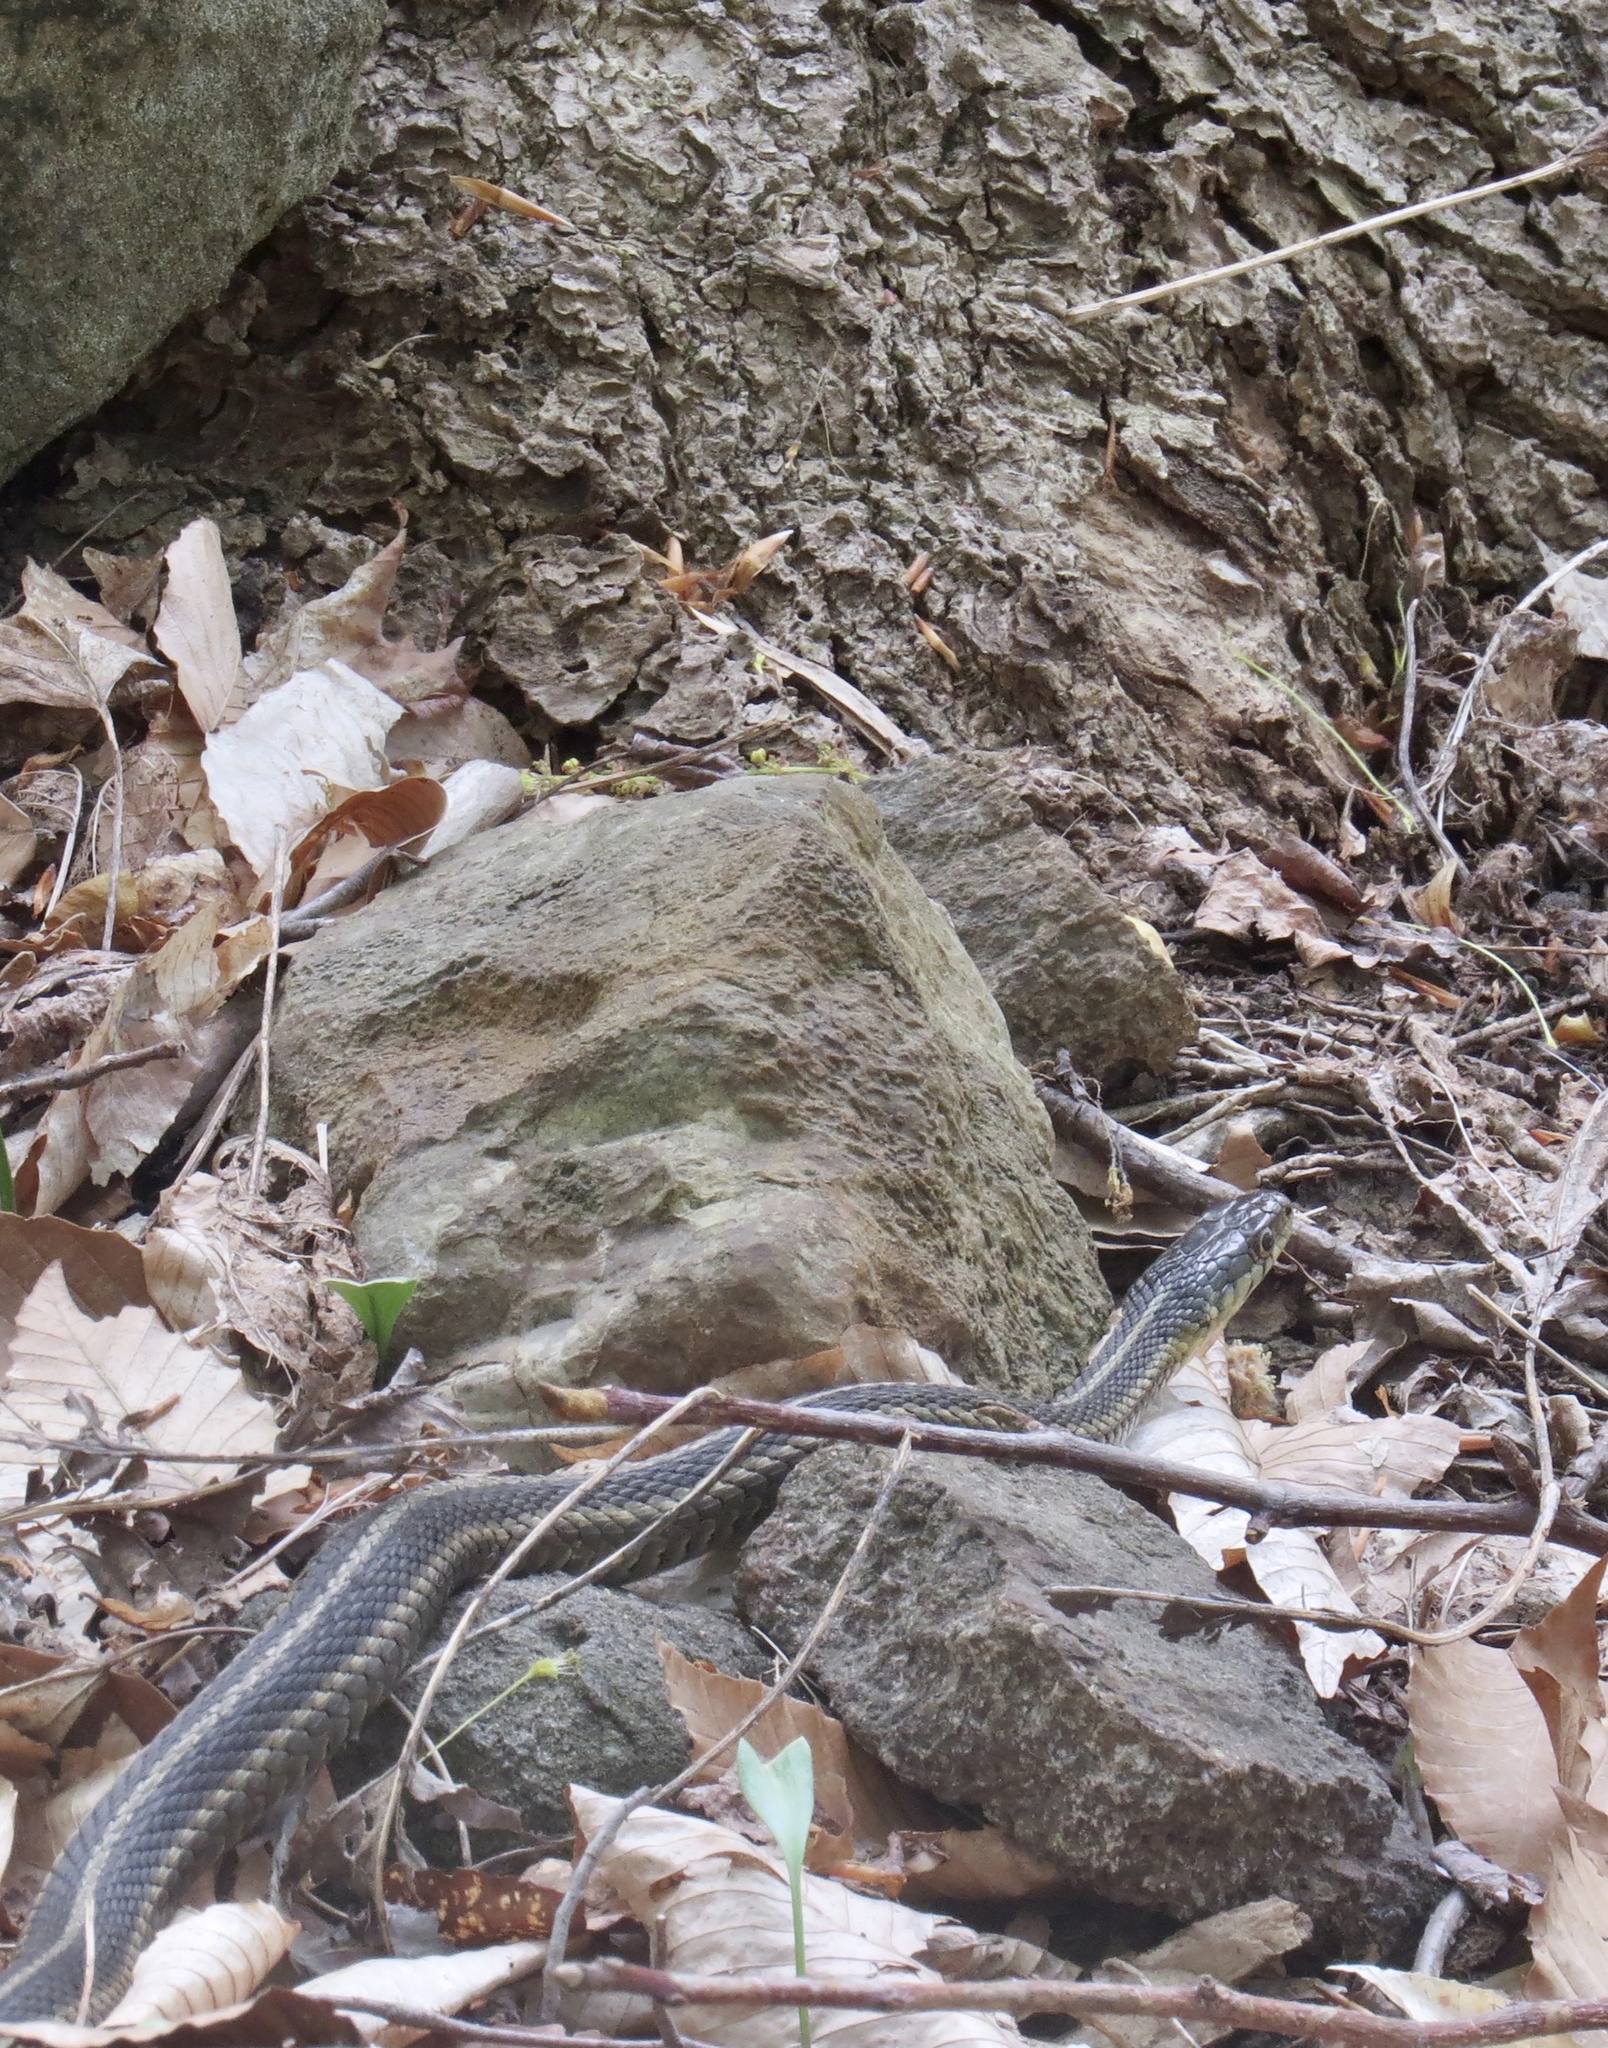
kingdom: Animalia
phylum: Chordata
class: Squamata
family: Colubridae
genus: Thamnophis
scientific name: Thamnophis sirtalis
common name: Common garter snake
